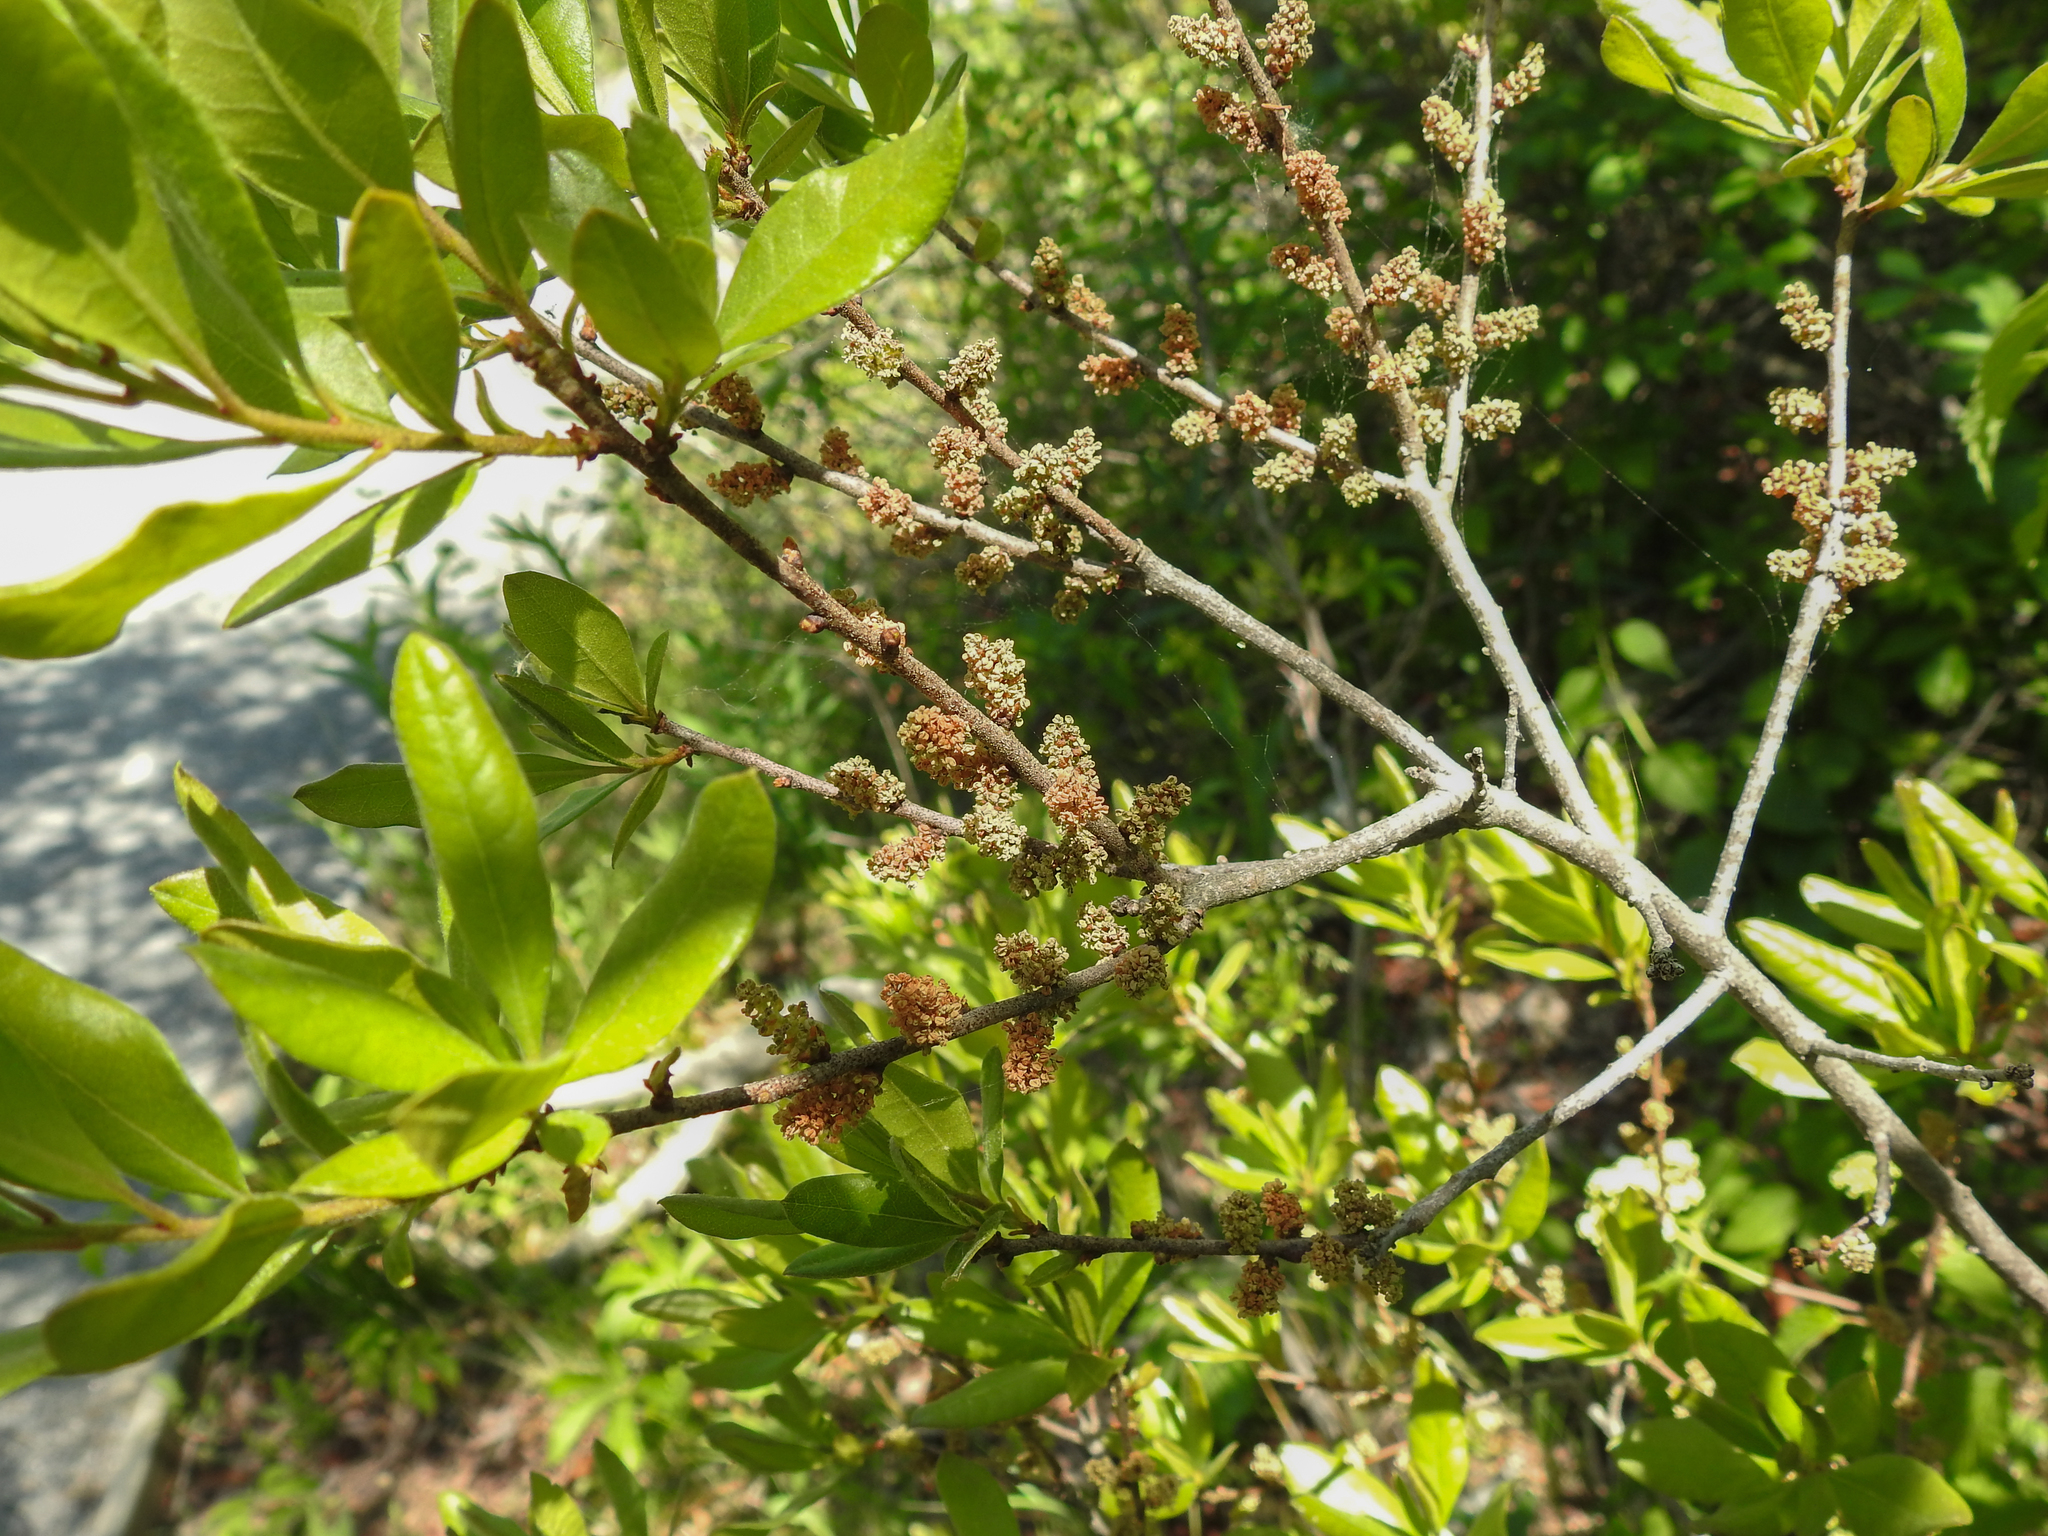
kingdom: Plantae
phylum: Tracheophyta
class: Magnoliopsida
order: Fagales
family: Myricaceae
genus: Morella
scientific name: Morella pensylvanica
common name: Northern bayberry
